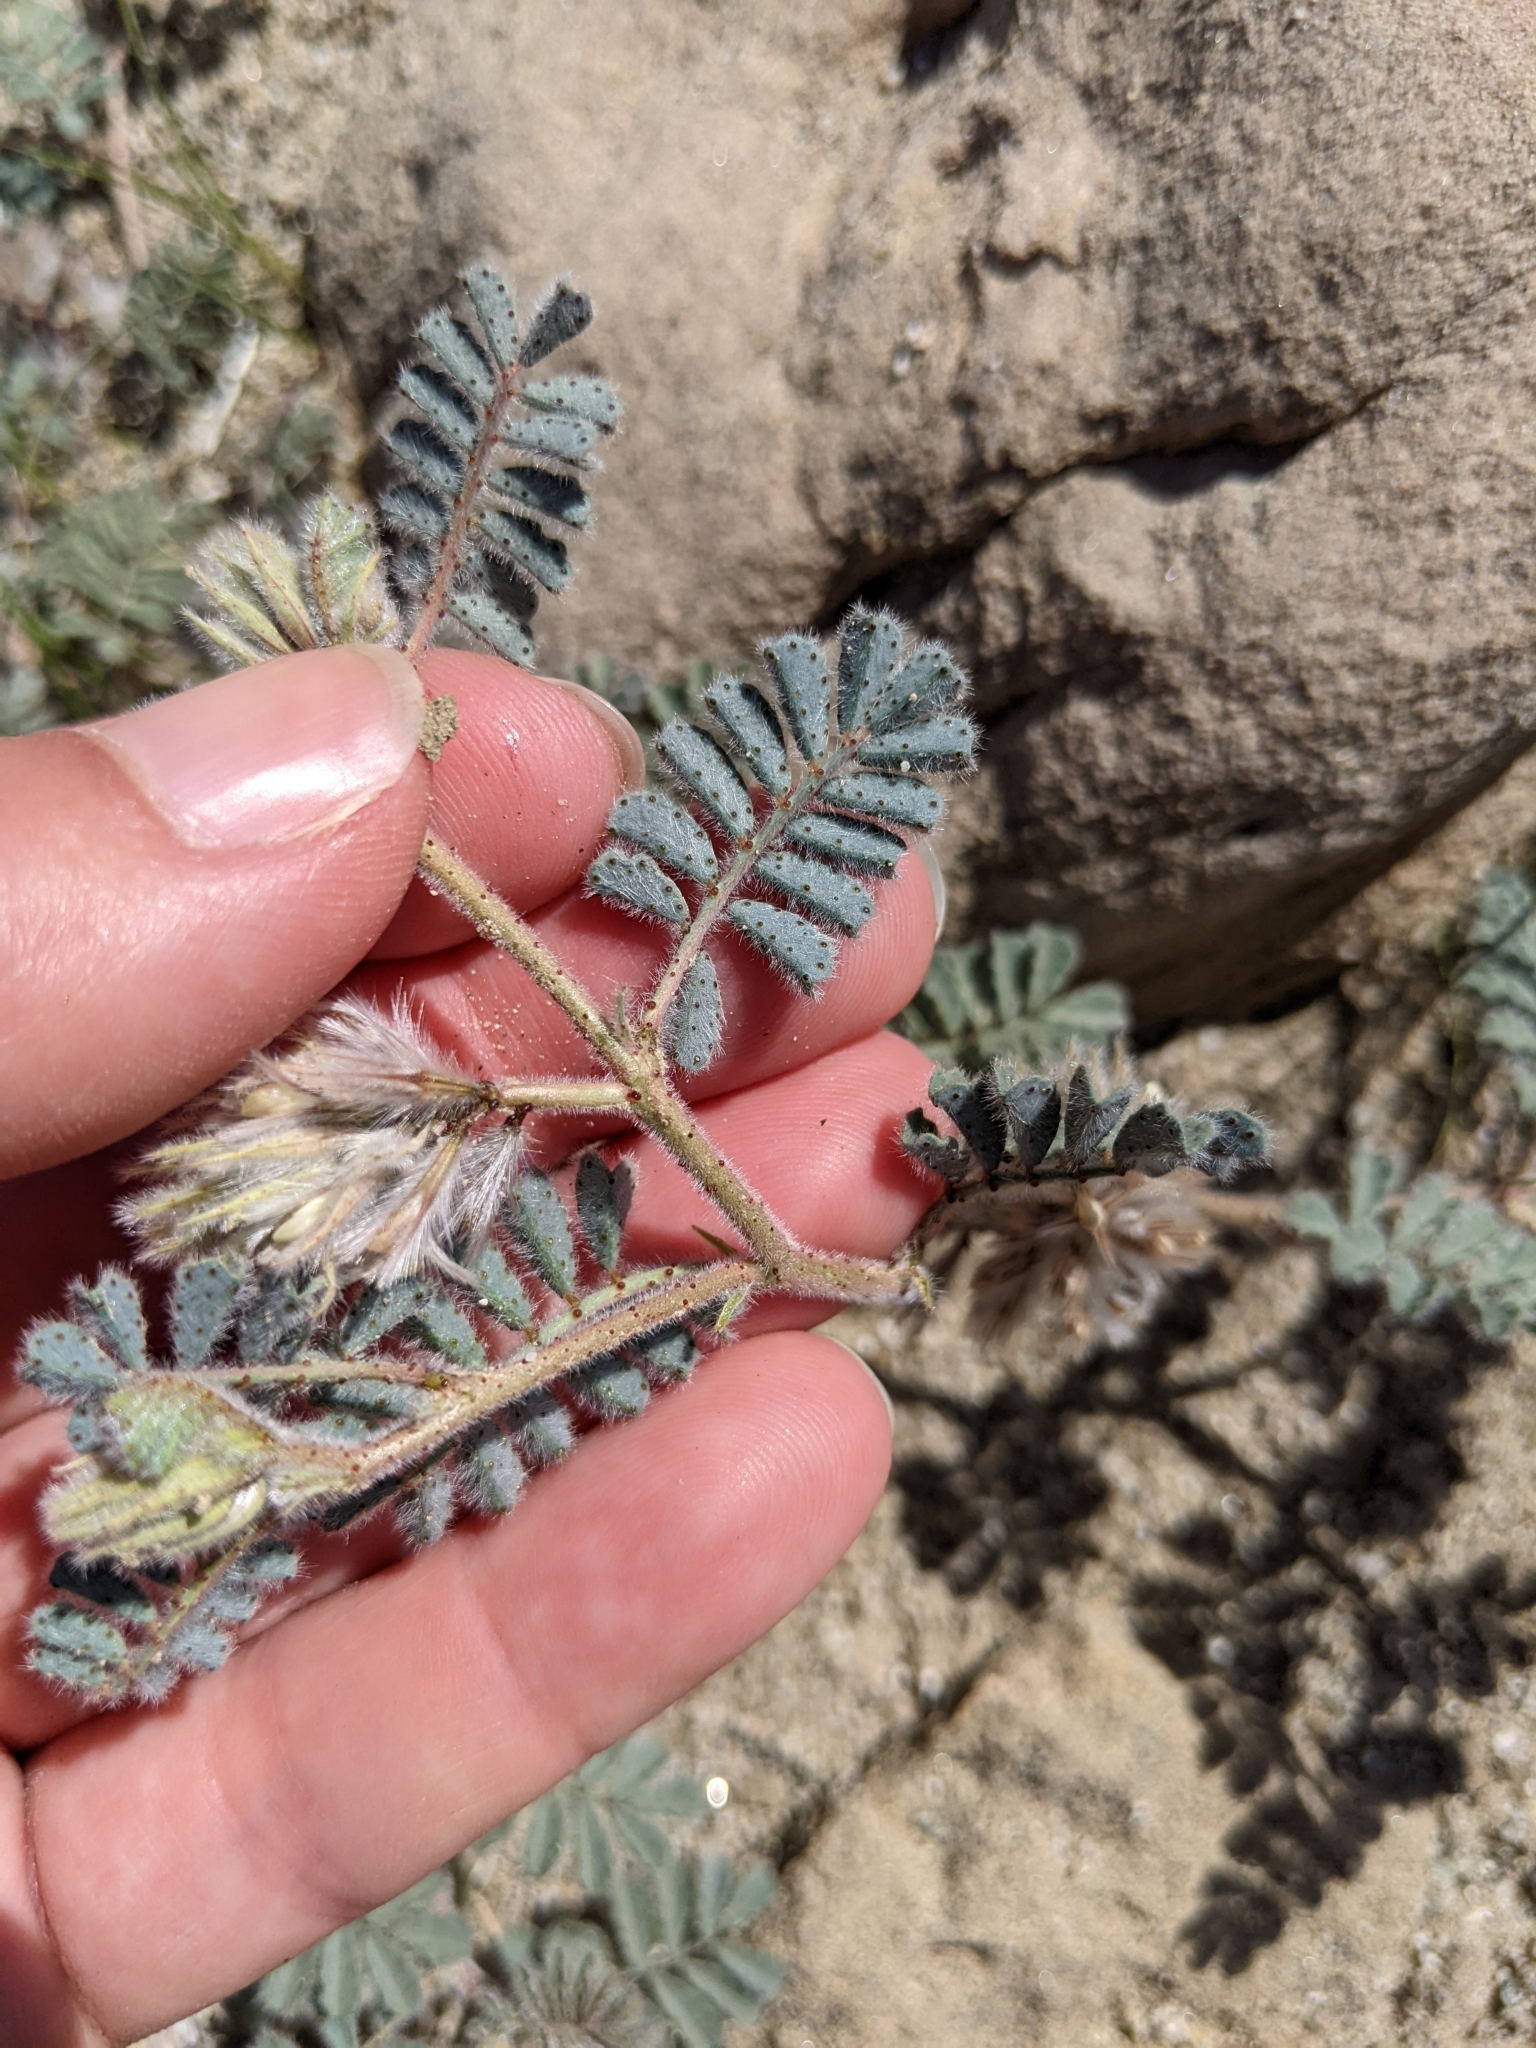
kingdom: Plantae
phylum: Tracheophyta
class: Magnoliopsida
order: Fabales
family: Fabaceae
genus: Dalea
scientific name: Dalea mollissima
